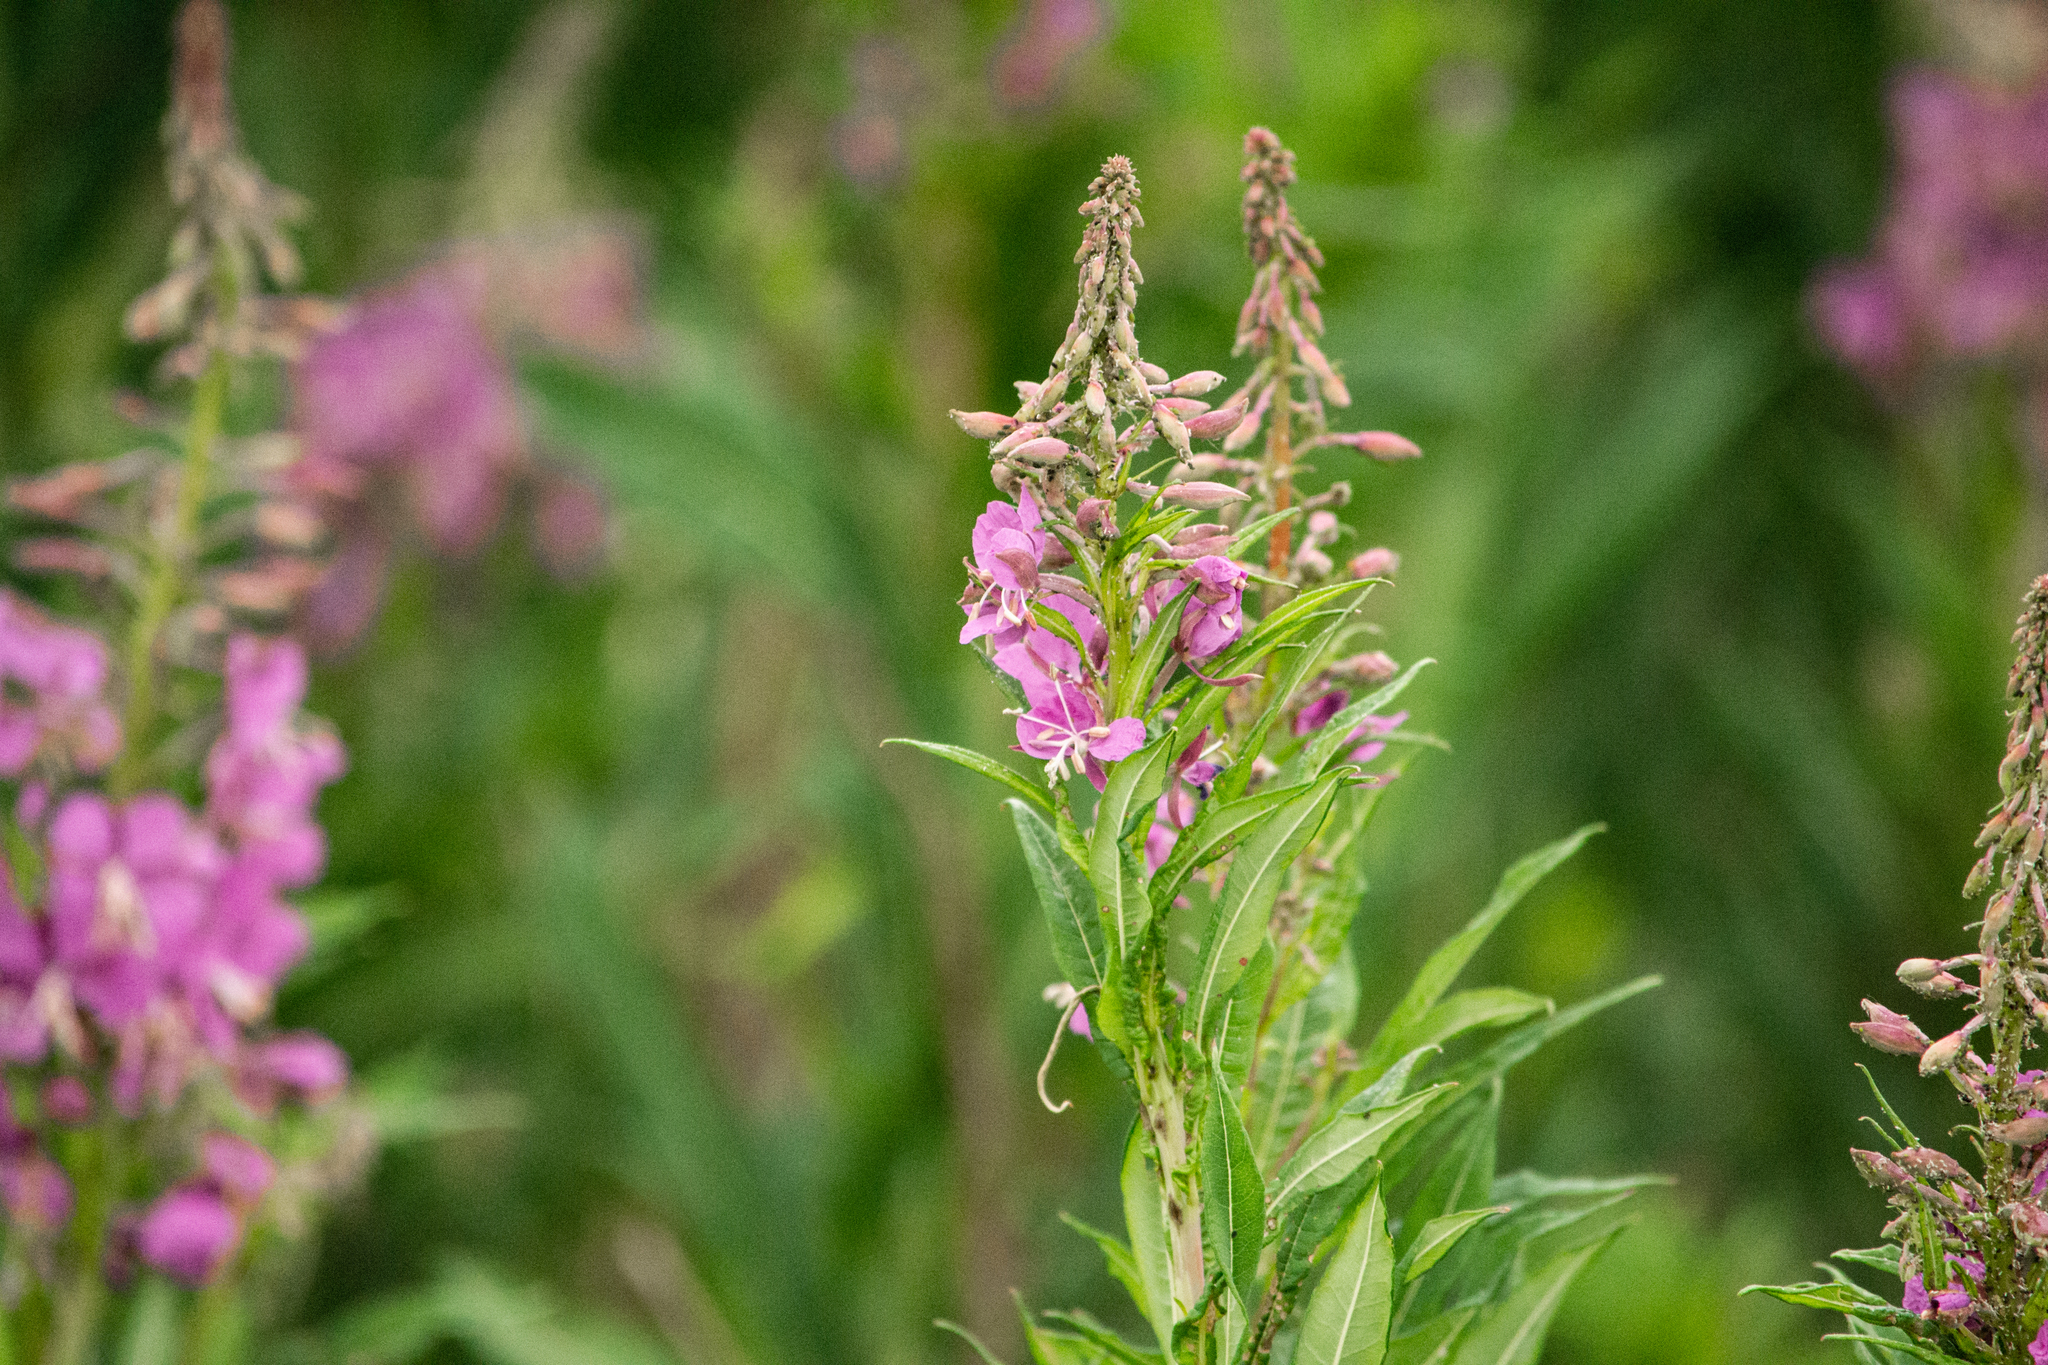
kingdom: Plantae
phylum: Tracheophyta
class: Magnoliopsida
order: Myrtales
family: Onagraceae
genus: Chamaenerion
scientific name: Chamaenerion angustifolium
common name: Fireweed
